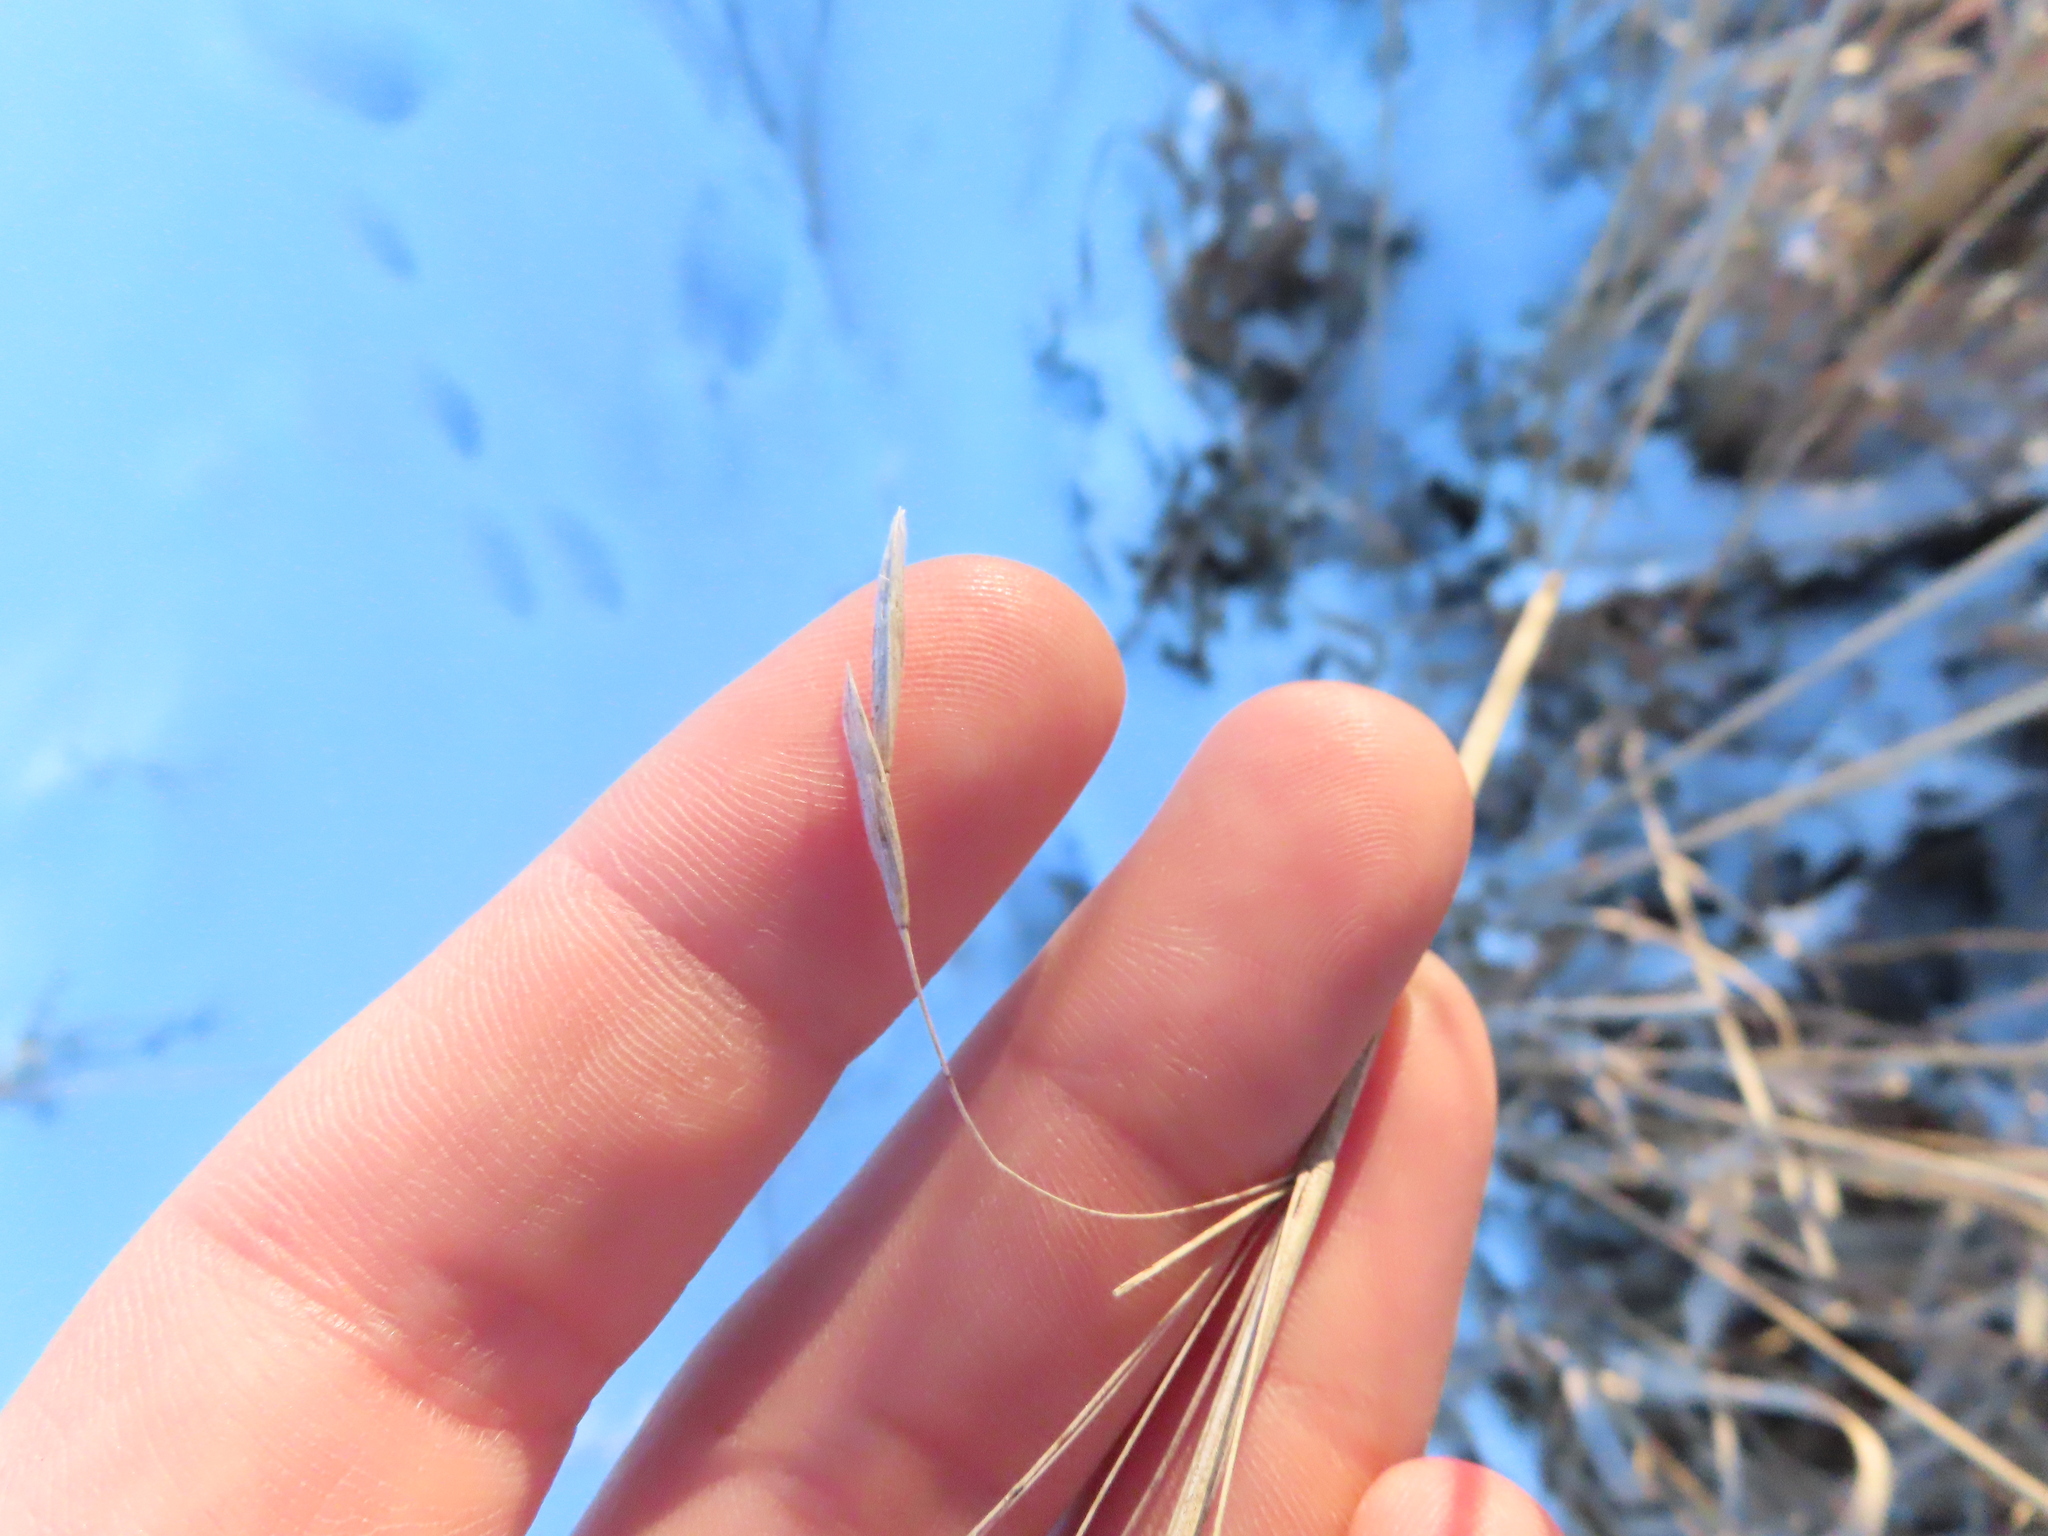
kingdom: Plantae
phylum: Tracheophyta
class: Liliopsida
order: Poales
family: Poaceae
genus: Bromus
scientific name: Bromus inermis
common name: Smooth brome
